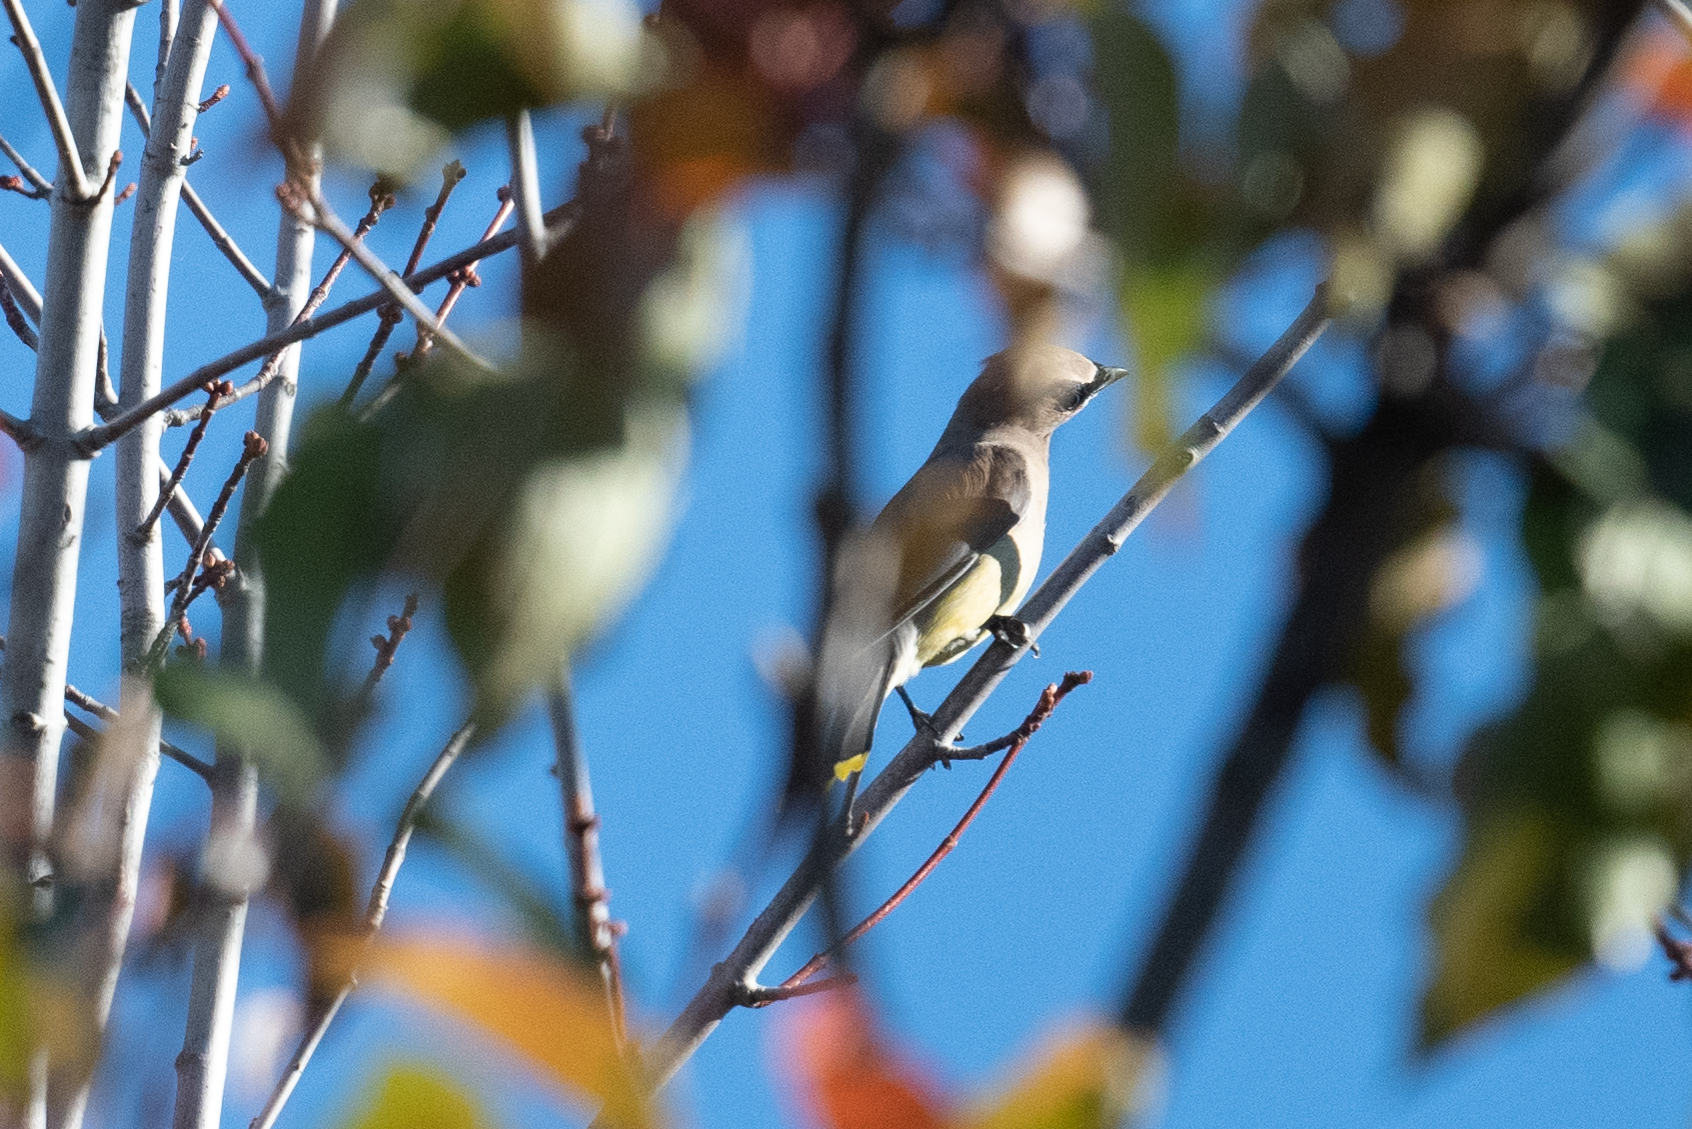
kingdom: Animalia
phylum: Chordata
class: Aves
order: Passeriformes
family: Bombycillidae
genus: Bombycilla
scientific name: Bombycilla cedrorum
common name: Cedar waxwing
